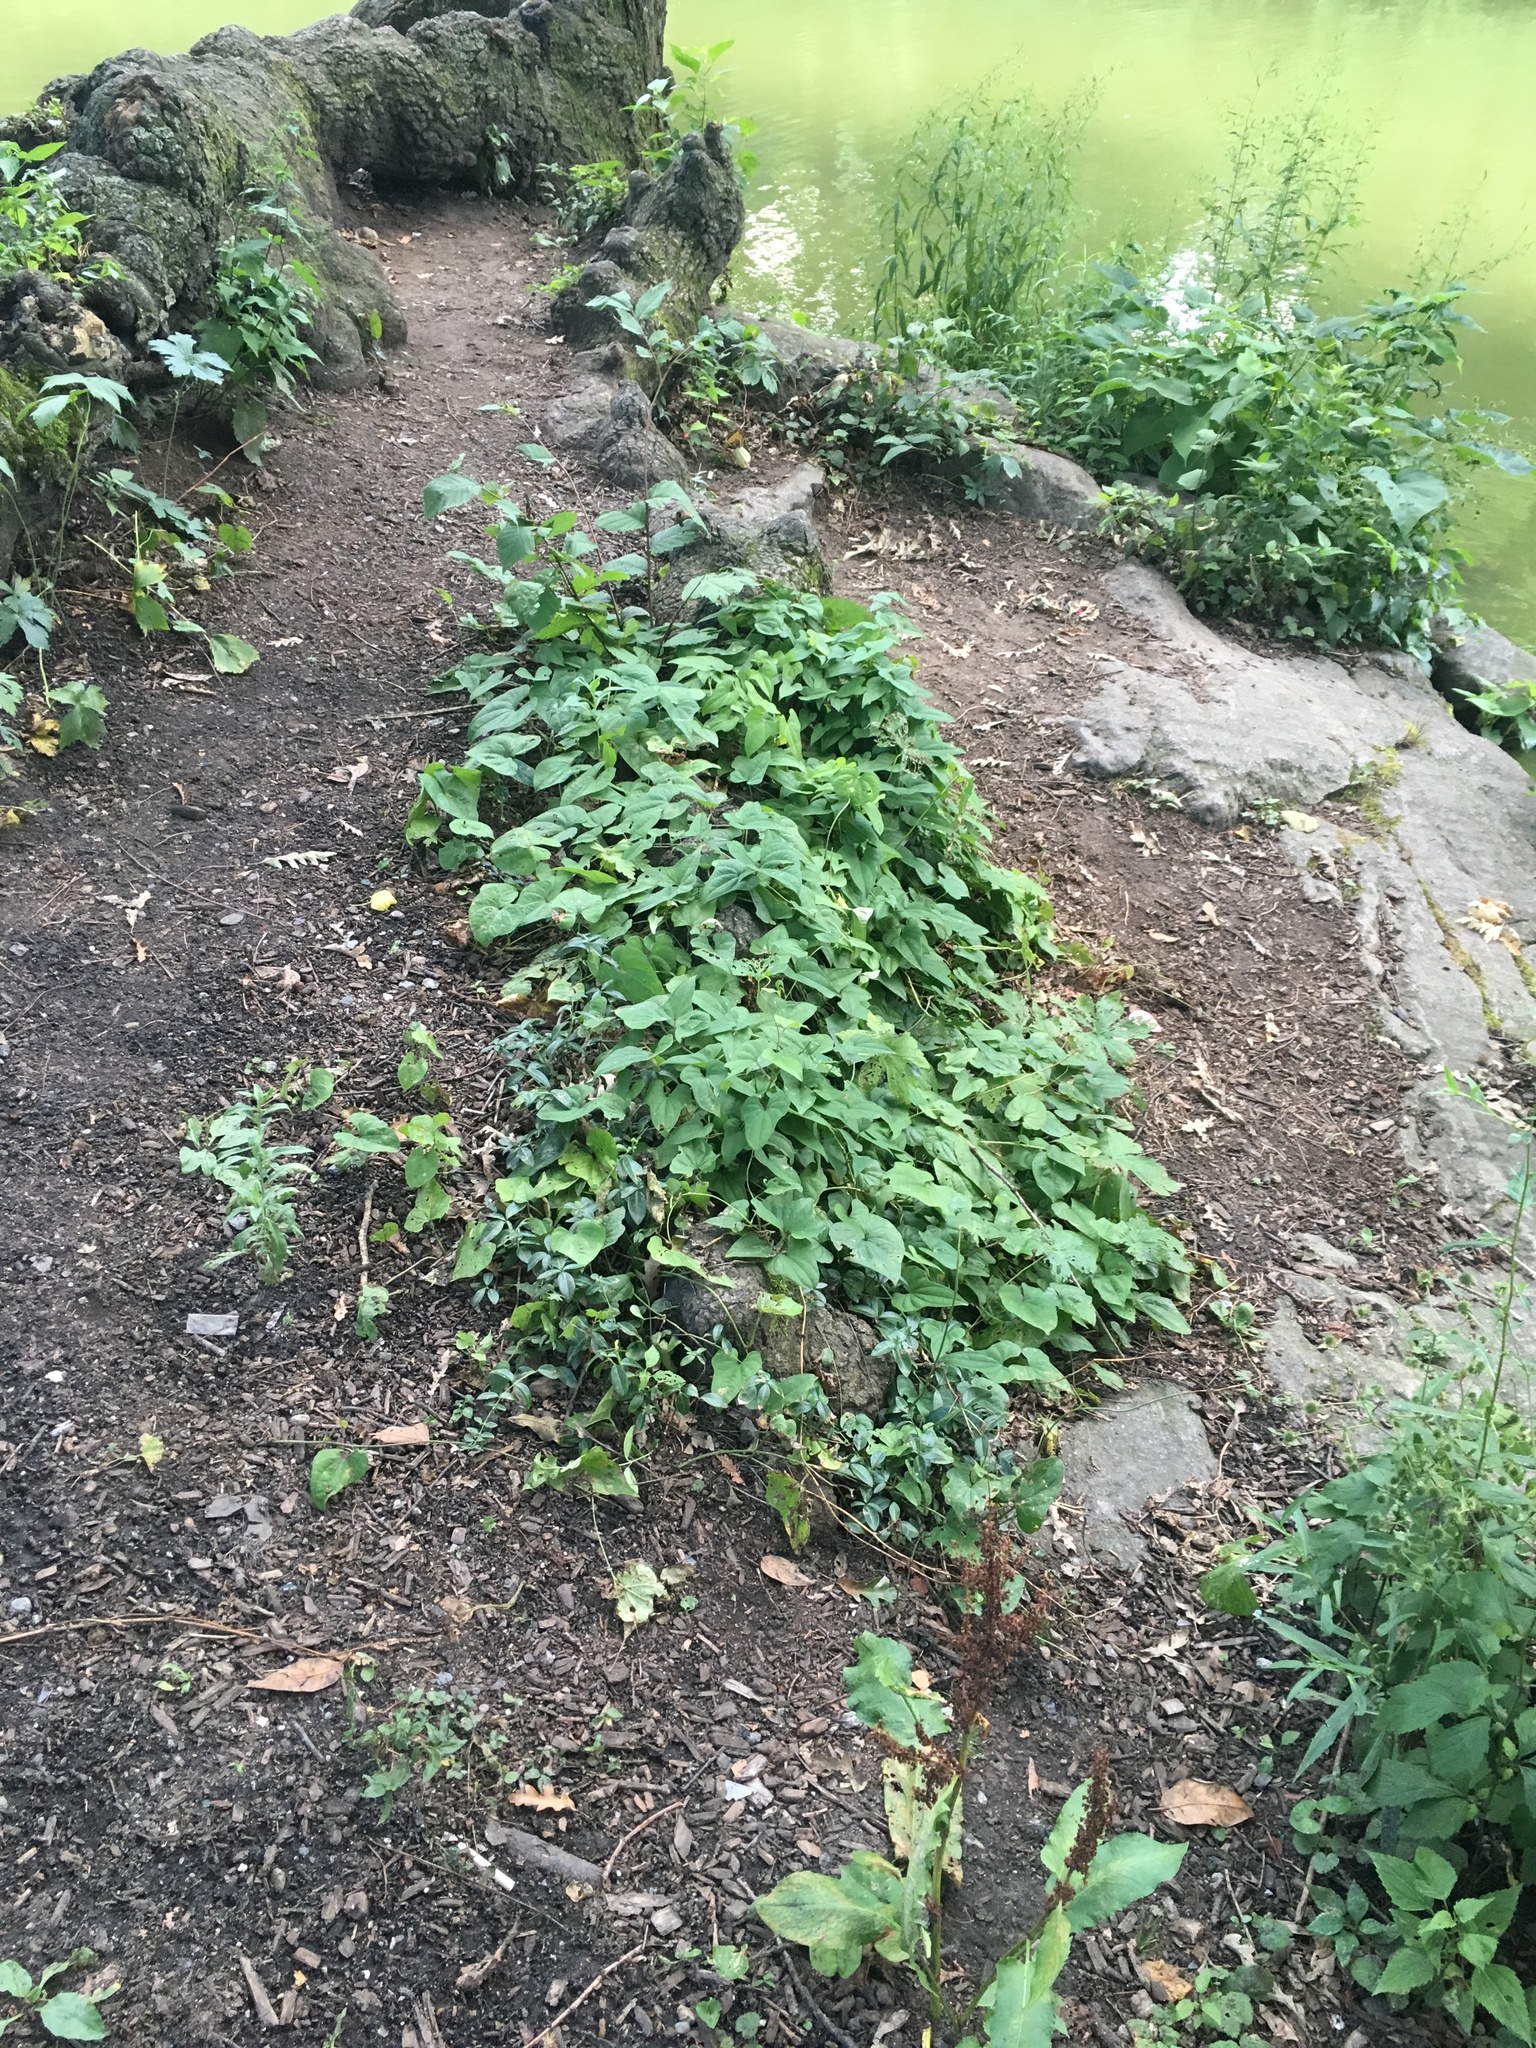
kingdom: Plantae
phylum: Tracheophyta
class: Liliopsida
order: Dioscoreales
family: Dioscoreaceae
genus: Dioscorea
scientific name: Dioscorea polystachya
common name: Chinese yam
